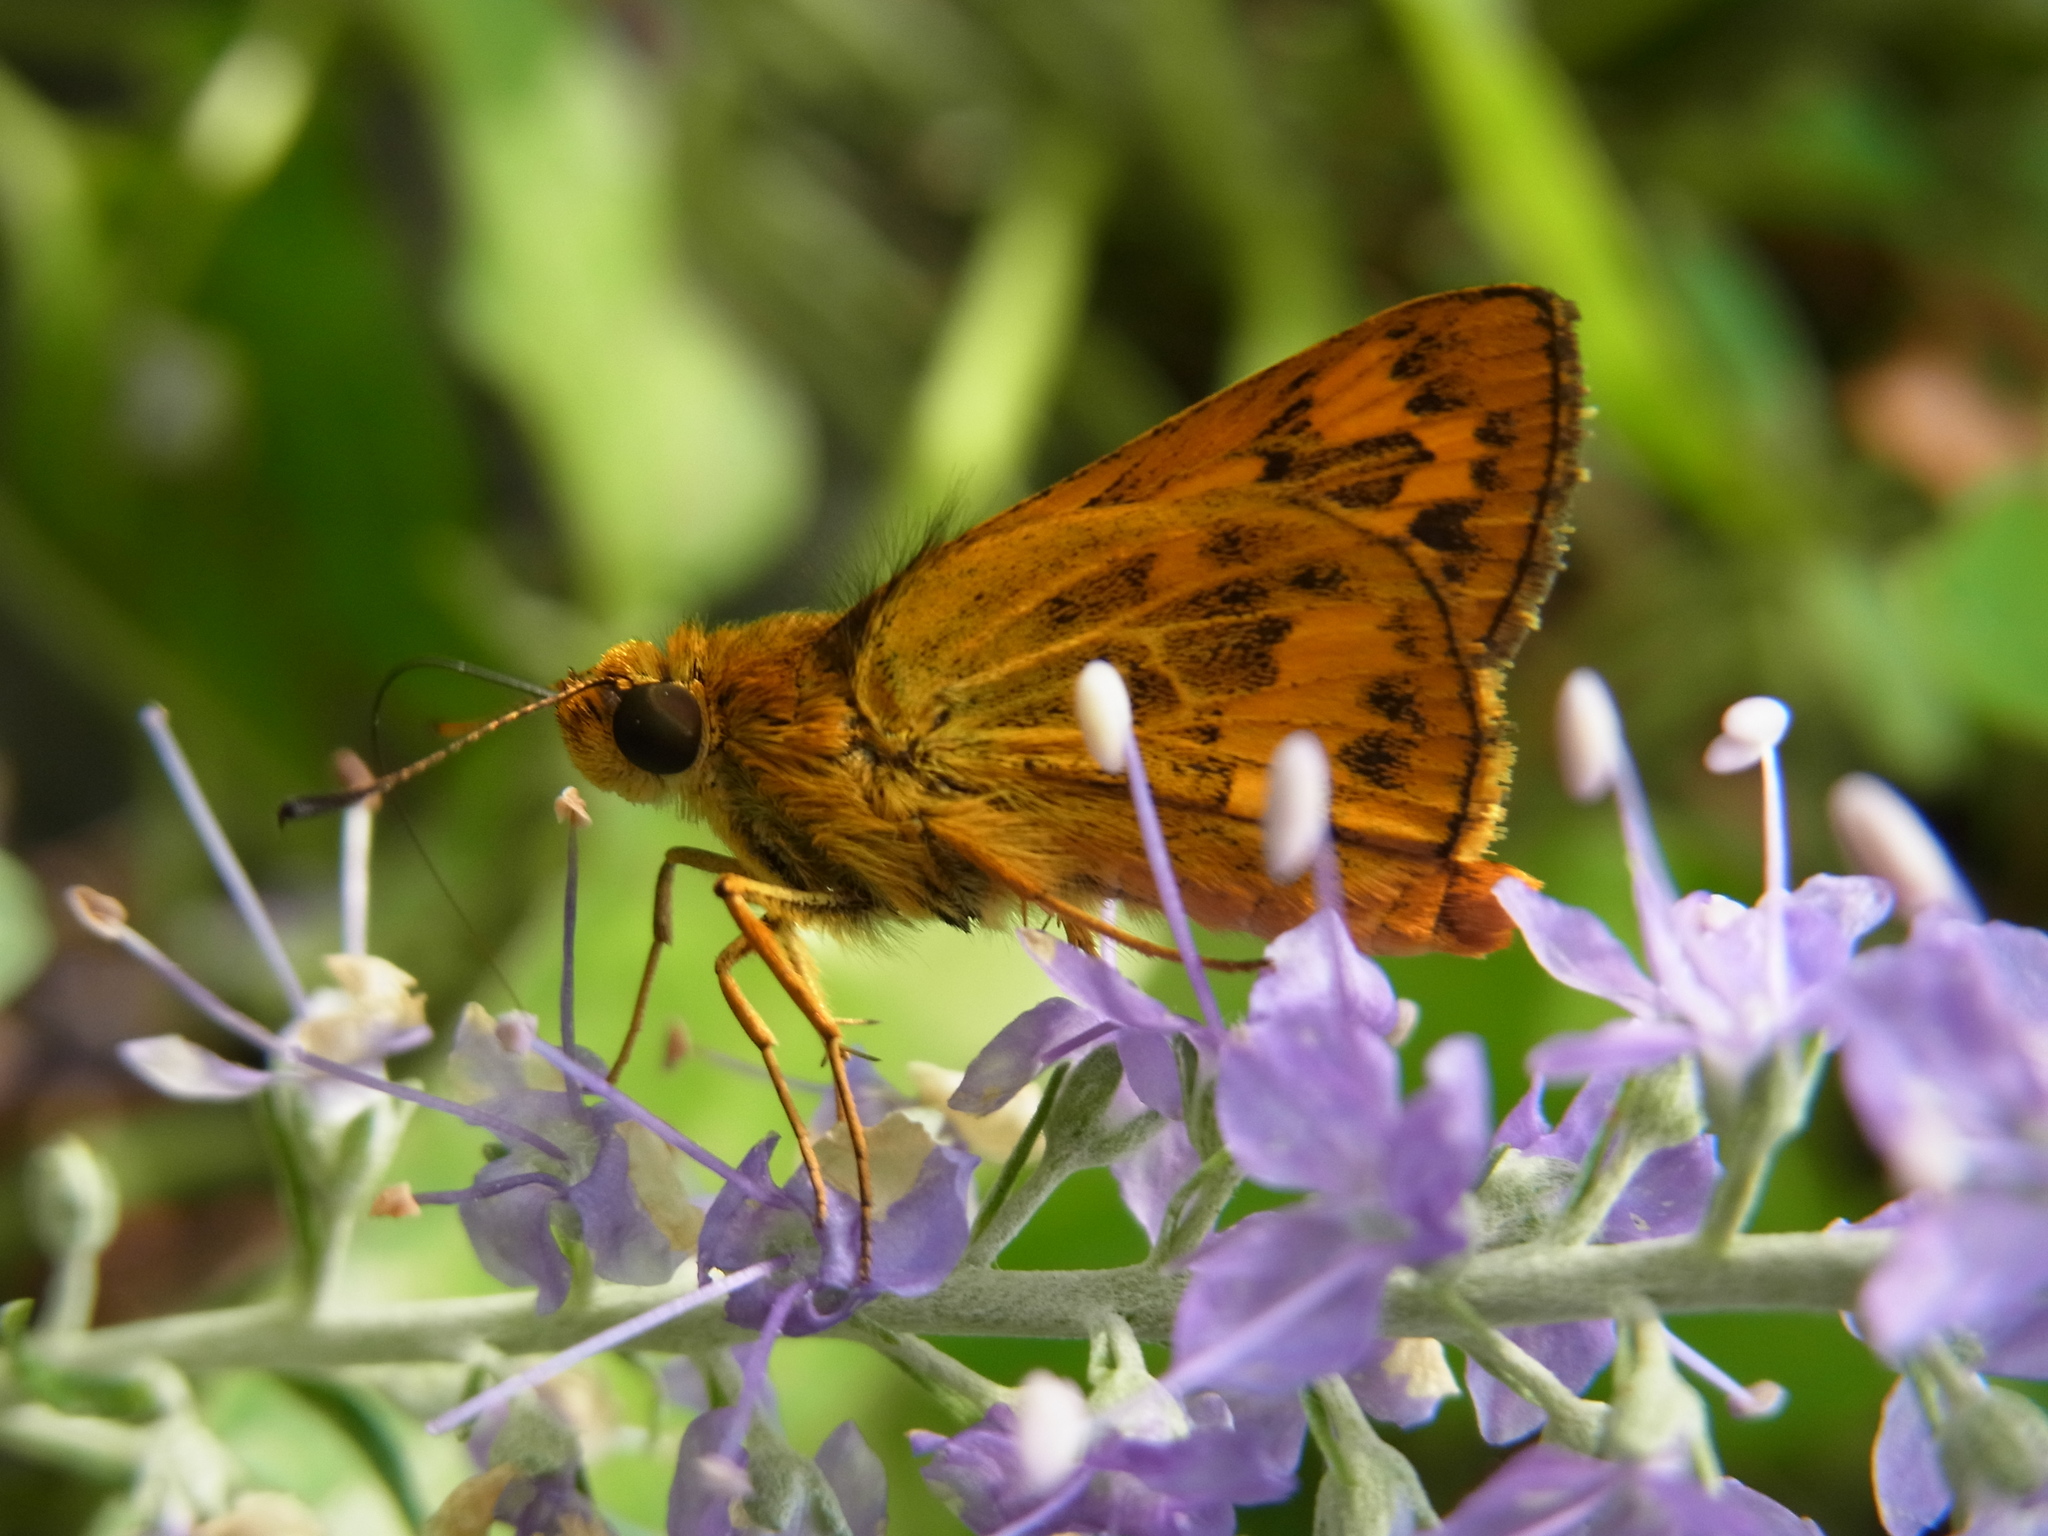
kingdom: Animalia
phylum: Arthropoda
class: Insecta
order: Lepidoptera
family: Hesperiidae
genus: Potanthus
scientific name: Potanthus flava
